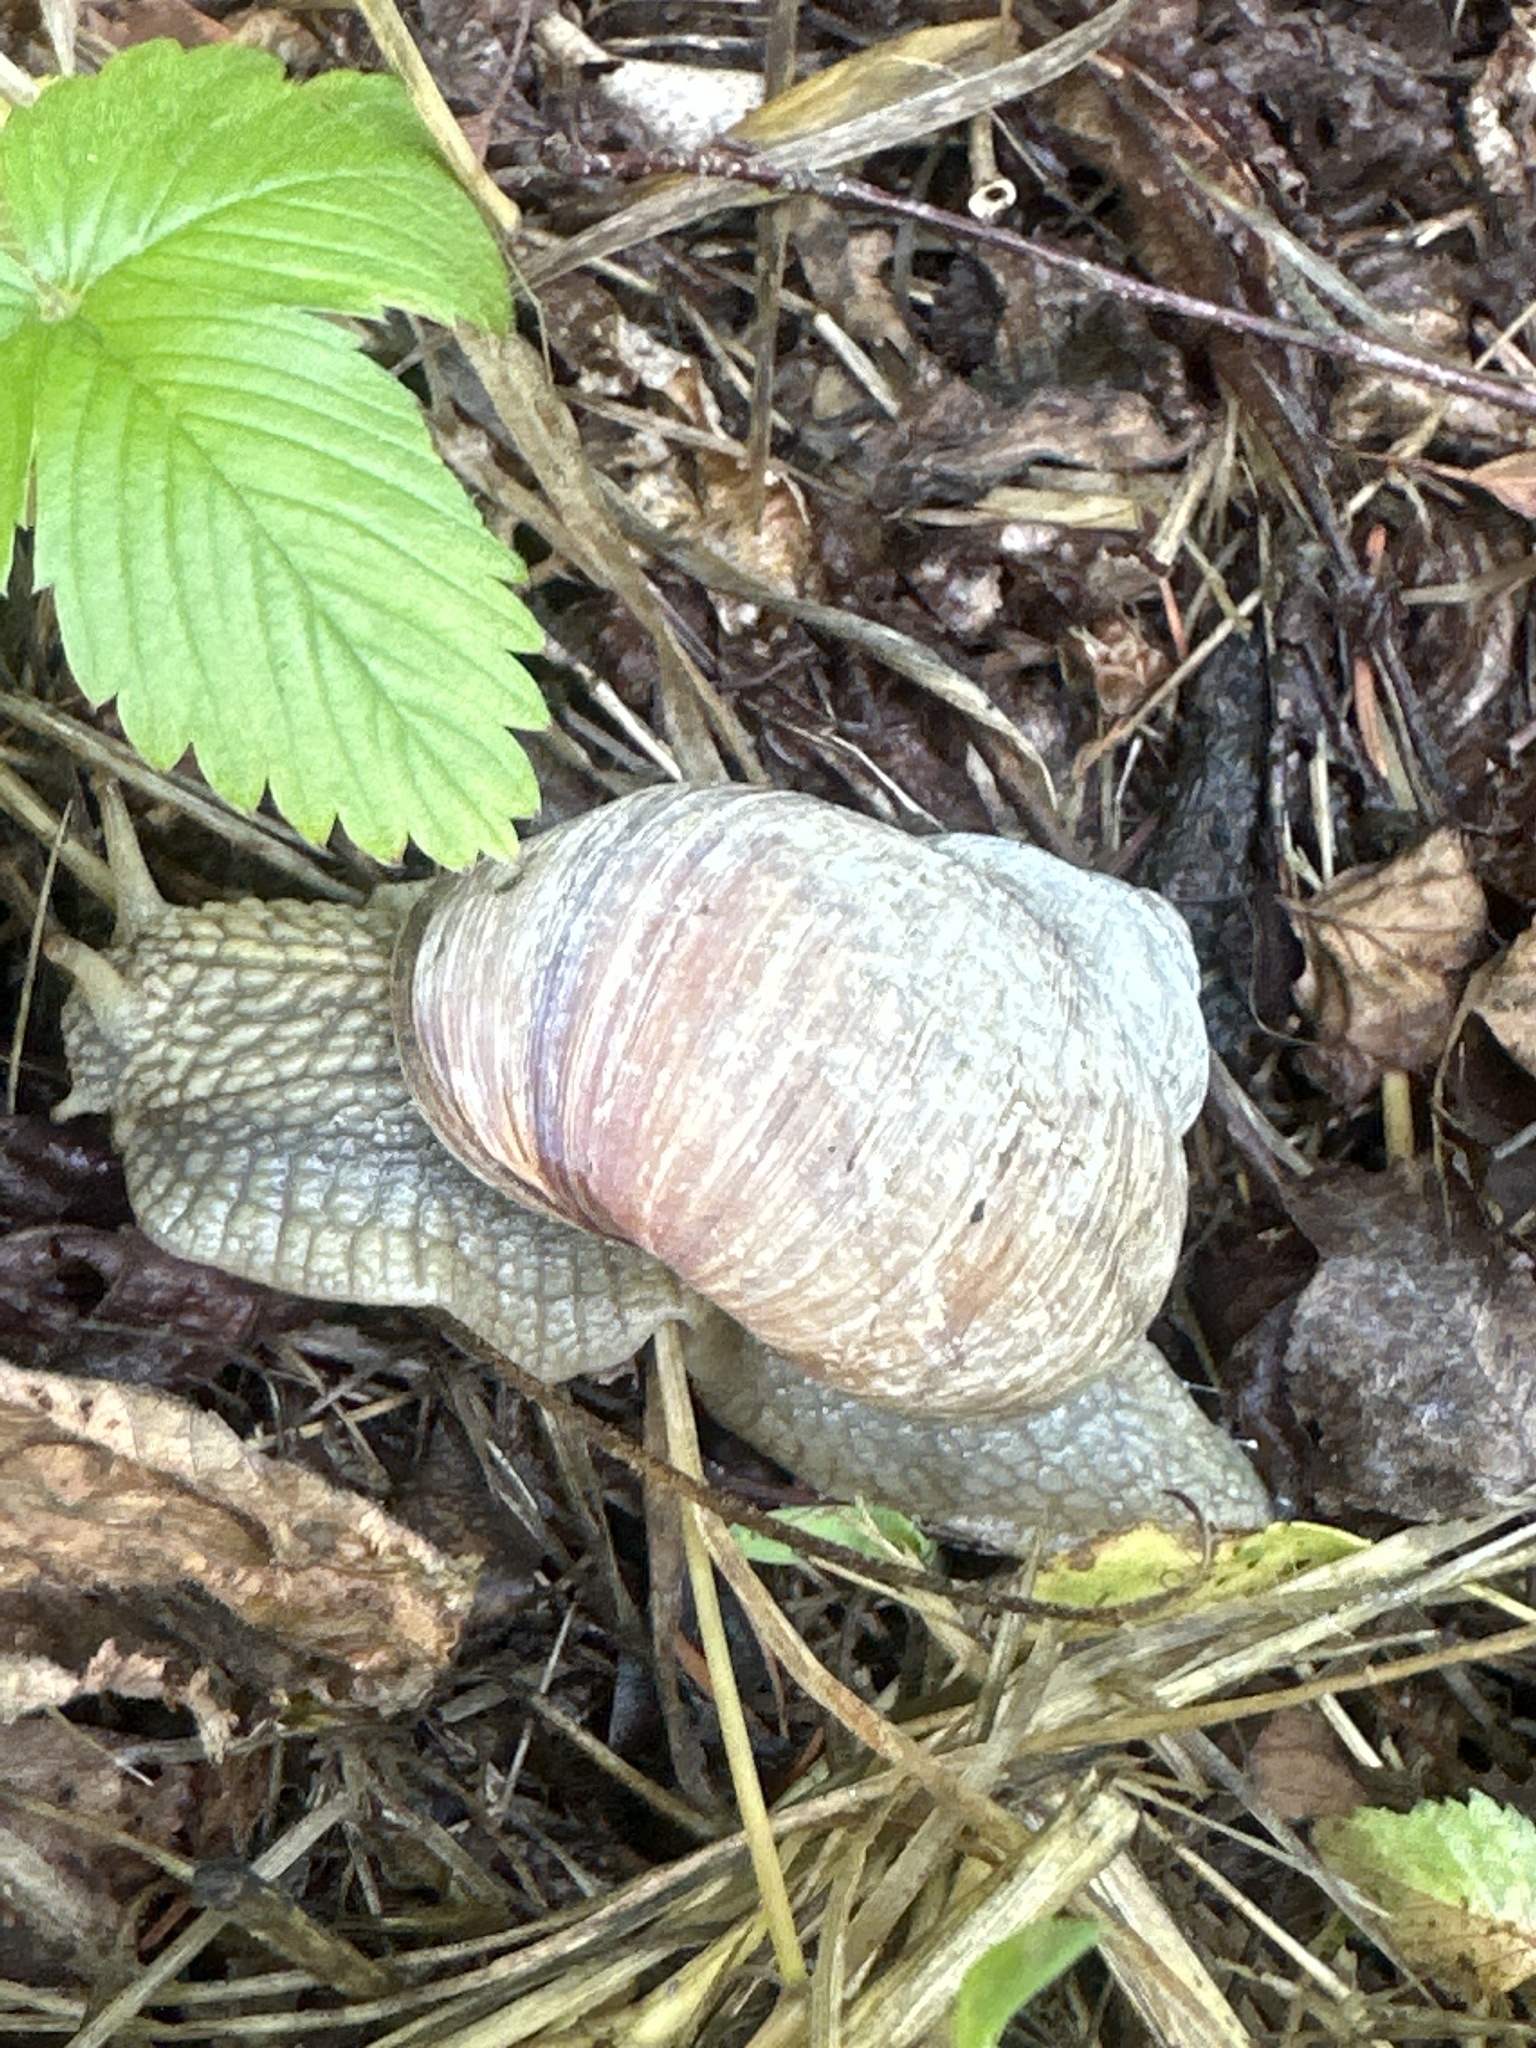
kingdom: Animalia
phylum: Mollusca
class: Gastropoda
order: Stylommatophora
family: Helicidae
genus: Helix
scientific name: Helix pomatia
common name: Roman snail
